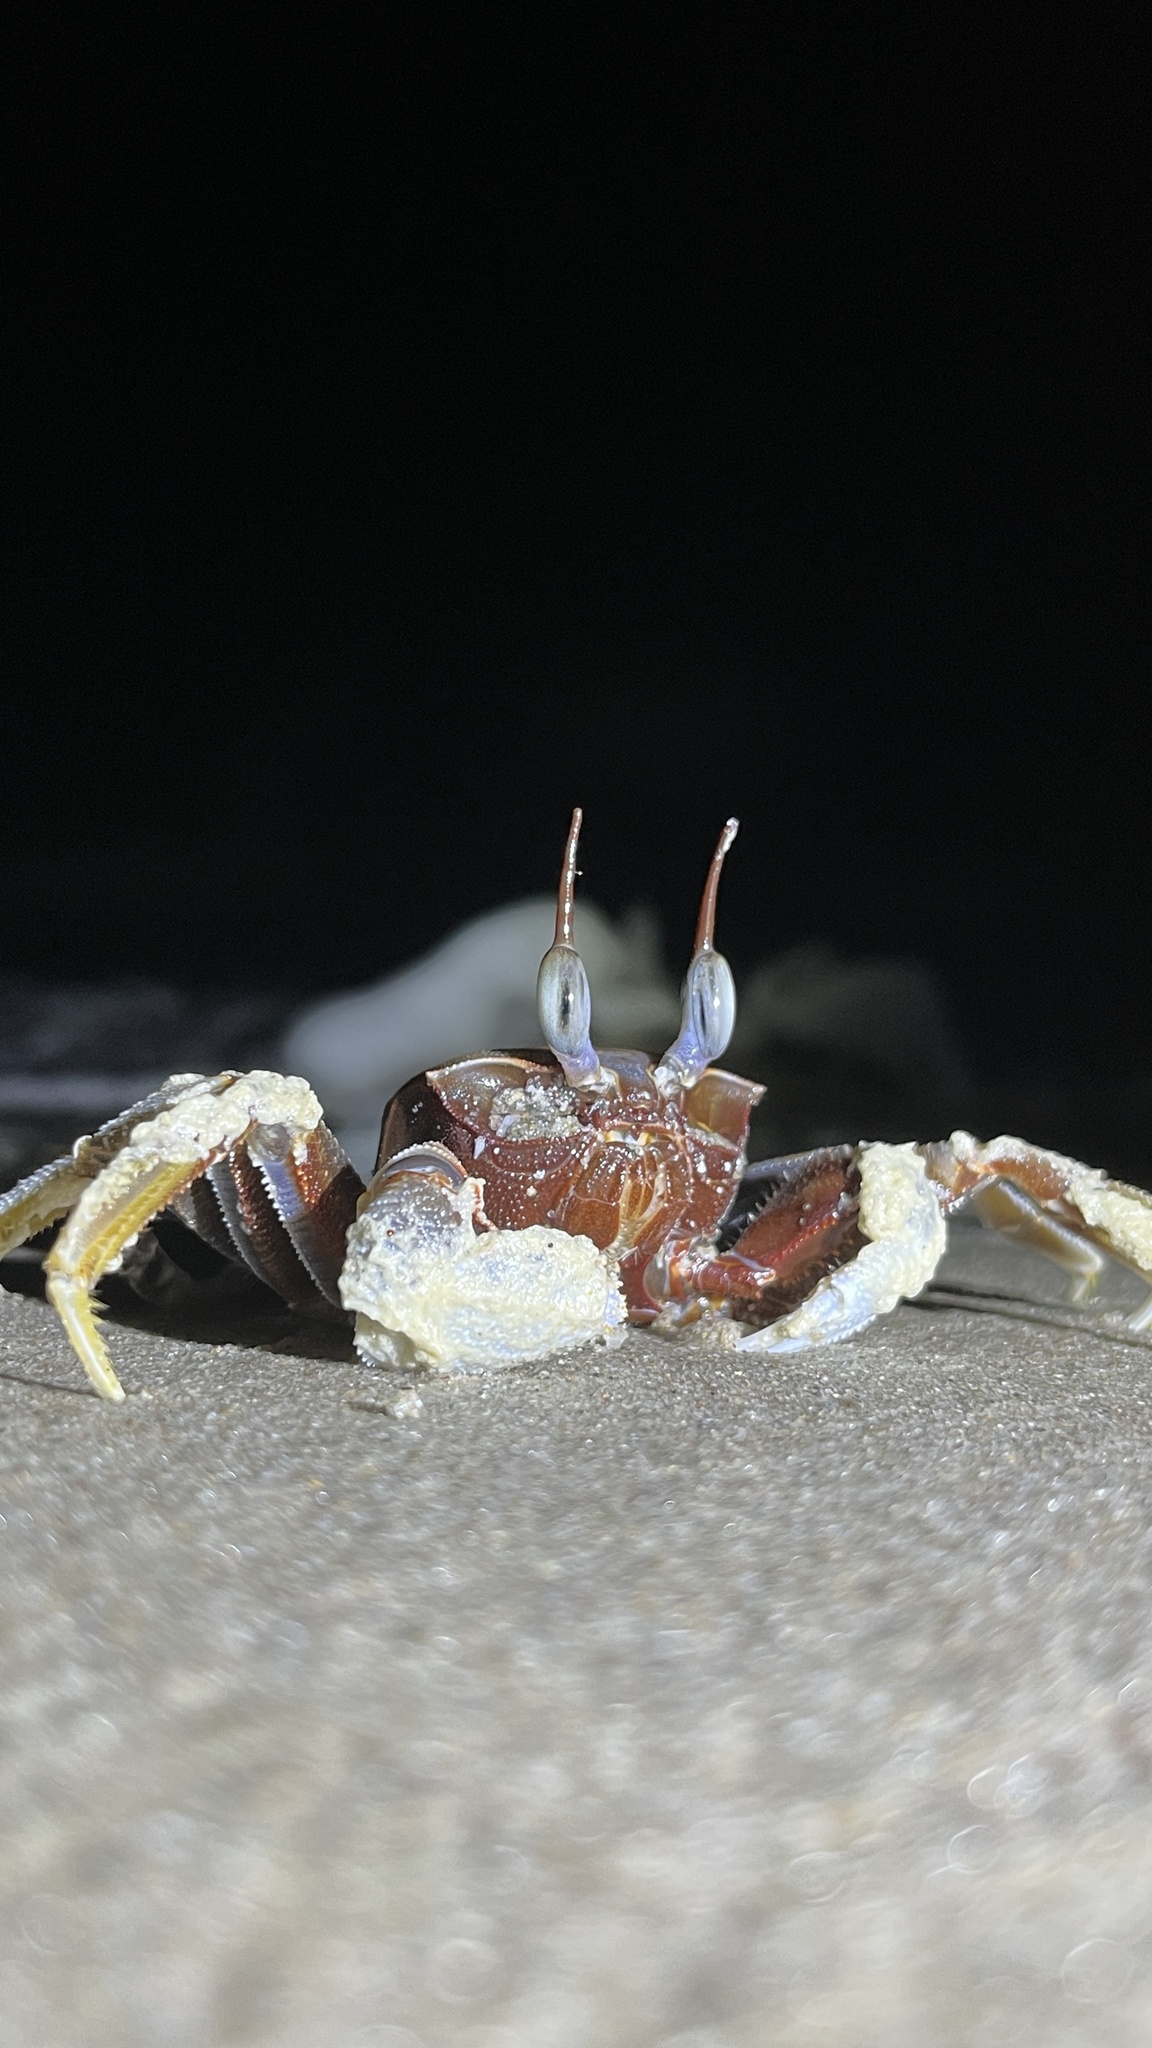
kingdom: Animalia
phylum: Arthropoda
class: Malacostraca
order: Decapoda
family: Ocypodidae
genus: Ocypode
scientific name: Ocypode ceratophthalmus
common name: Indo-pacific ghost crab
